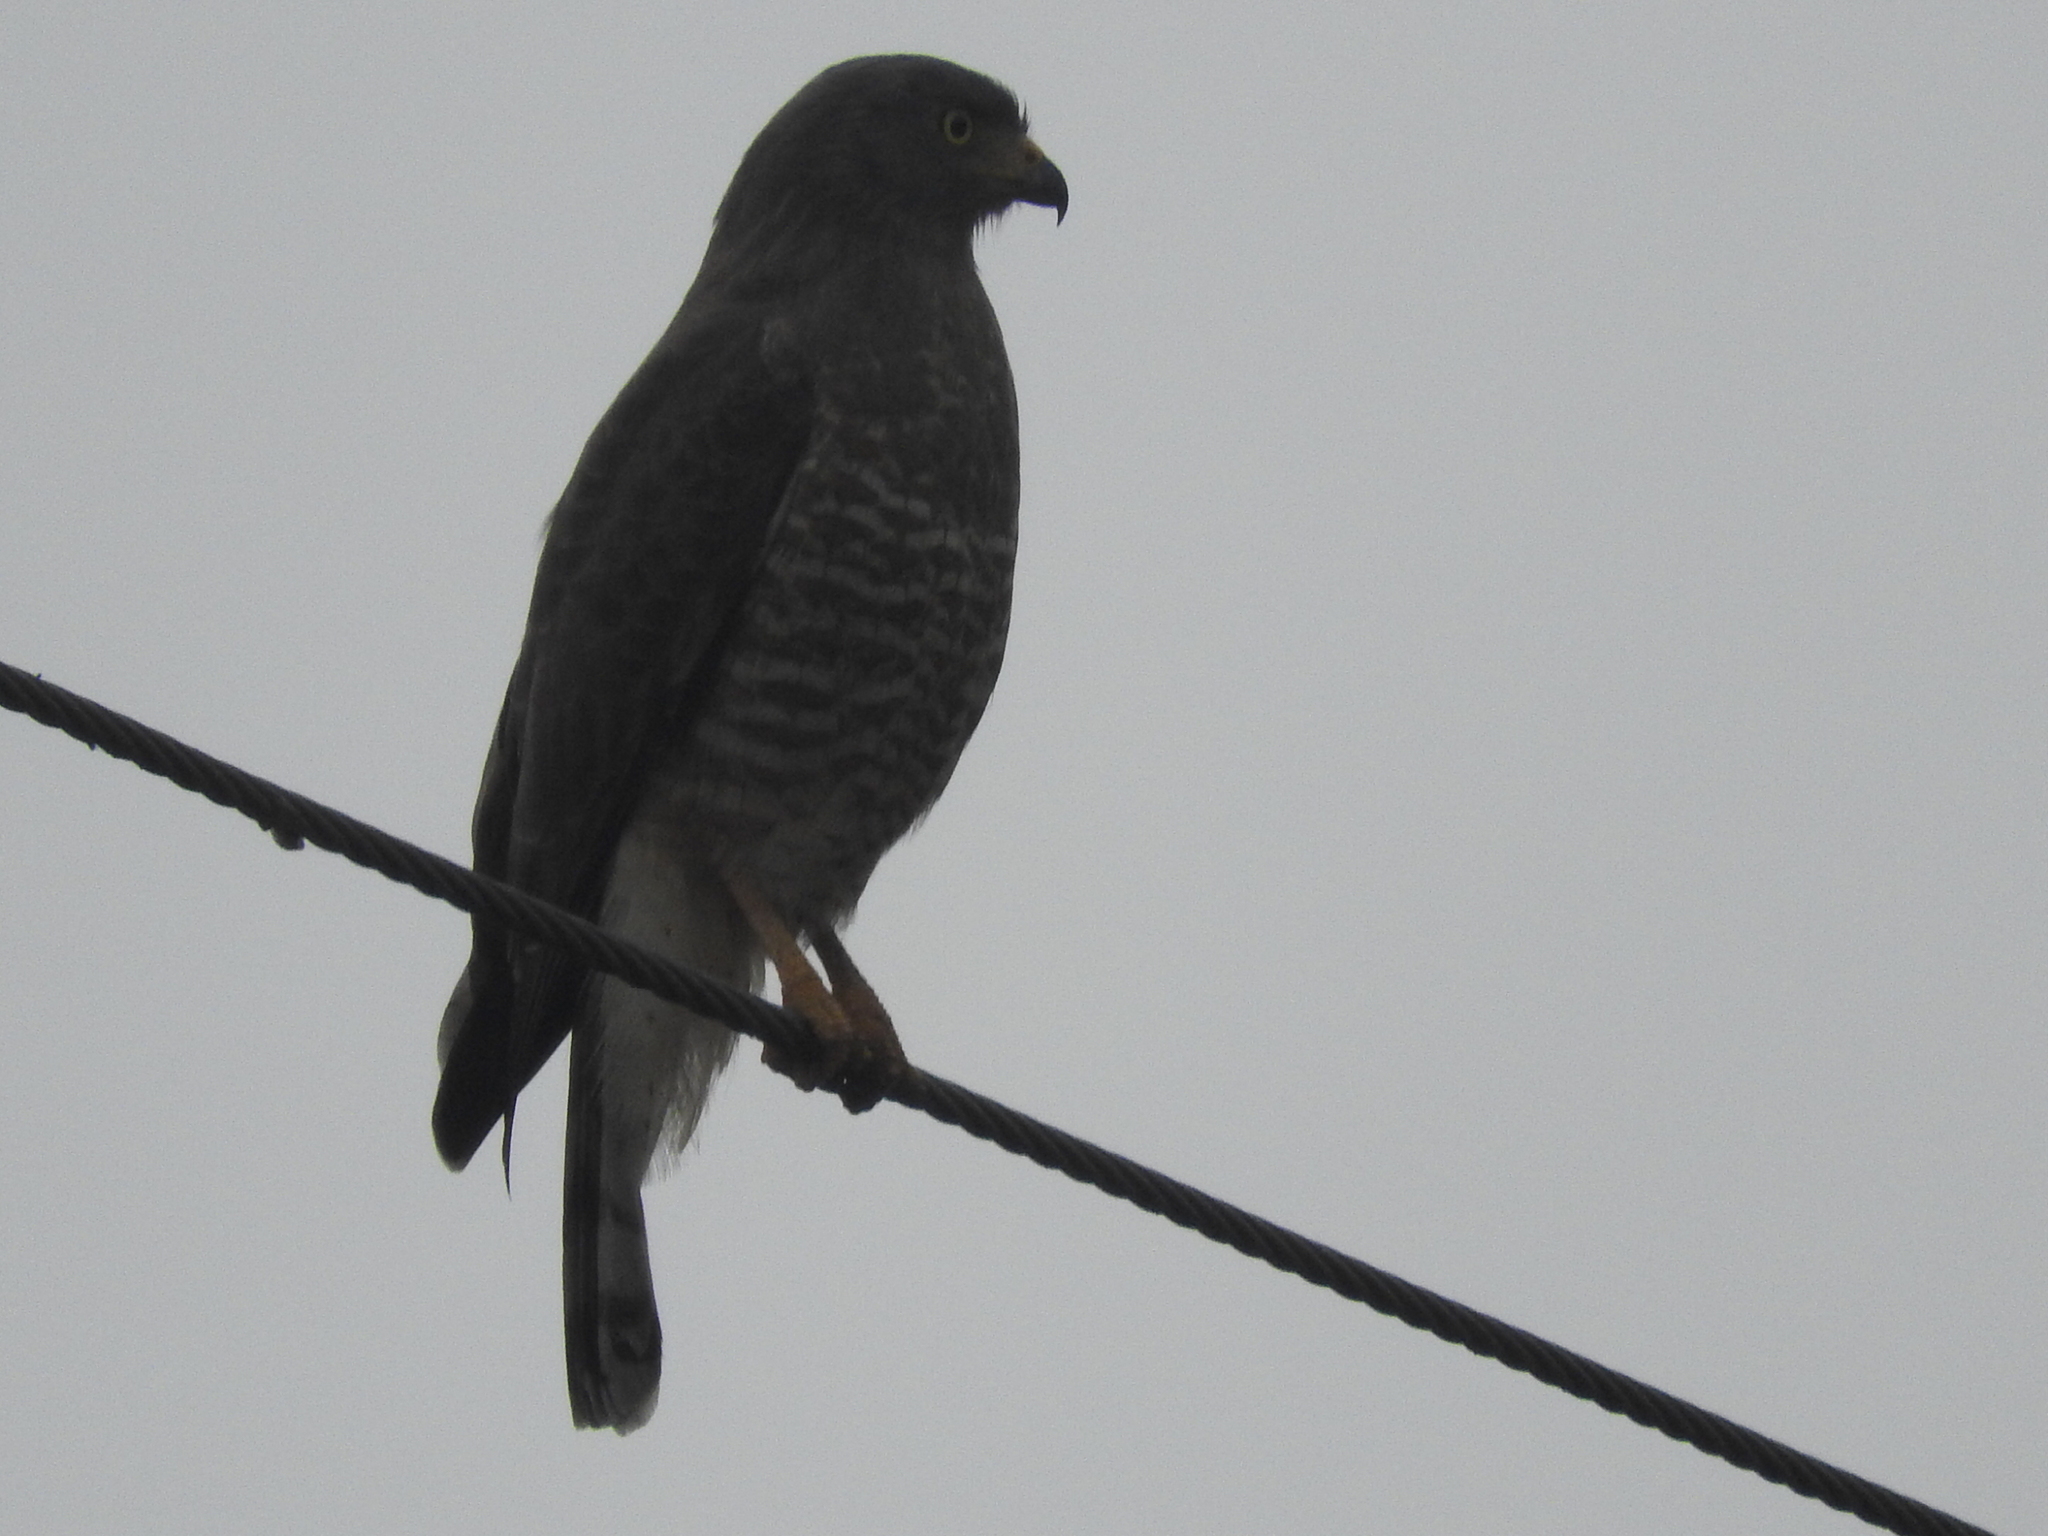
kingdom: Animalia
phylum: Chordata
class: Aves
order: Accipitriformes
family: Accipitridae
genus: Rupornis
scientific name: Rupornis magnirostris
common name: Roadside hawk
